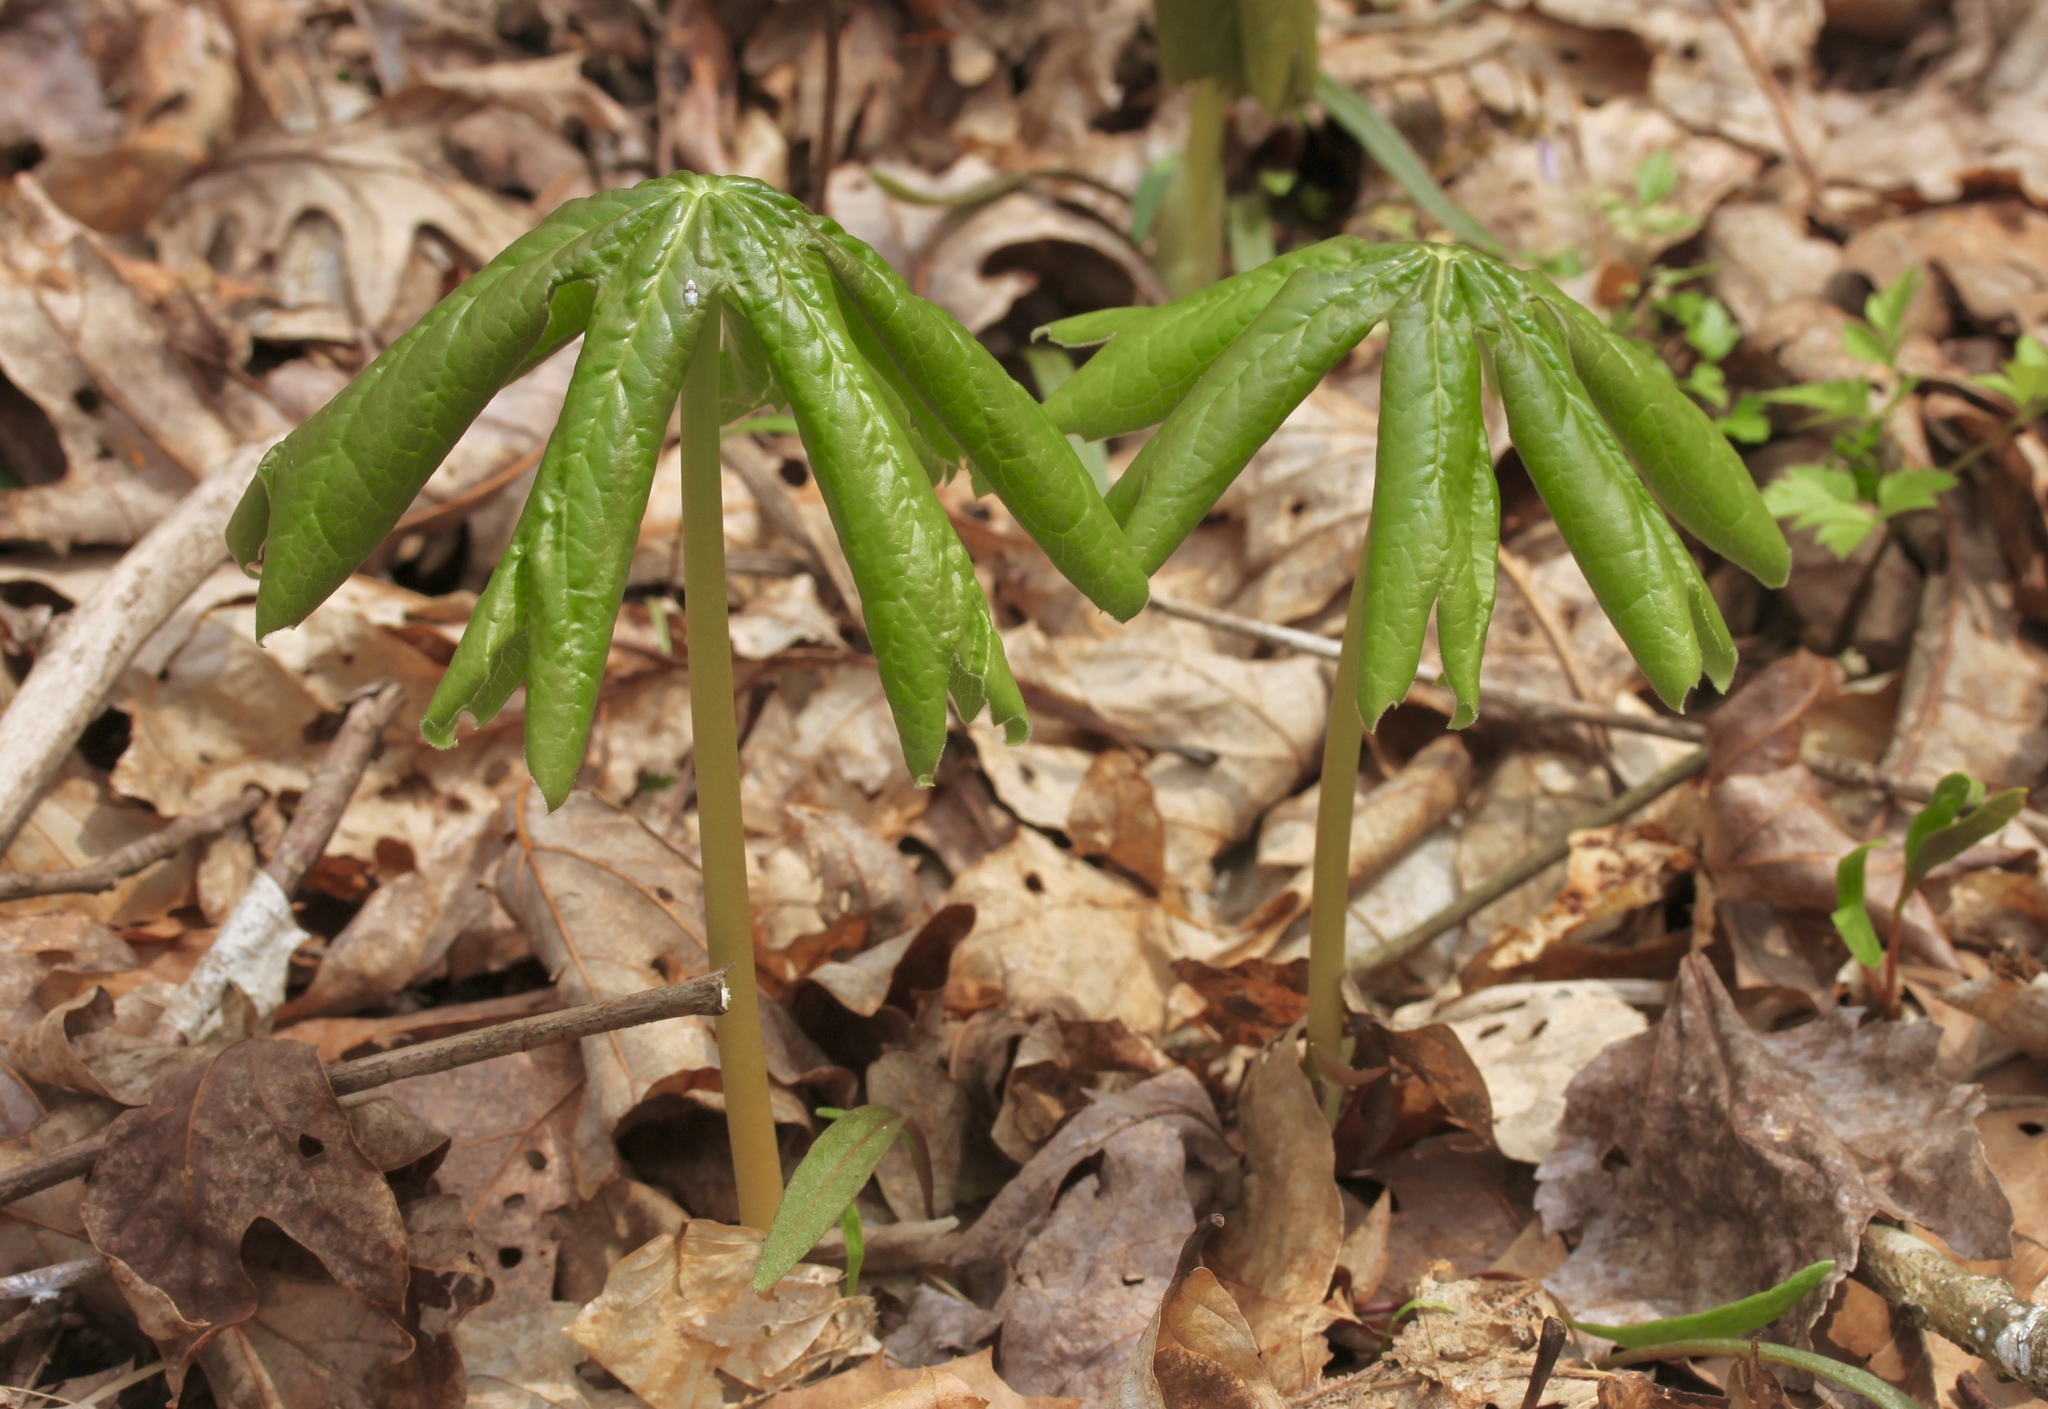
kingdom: Plantae
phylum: Tracheophyta
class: Magnoliopsida
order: Ranunculales
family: Berberidaceae
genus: Podophyllum
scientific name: Podophyllum peltatum
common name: Wild mandrake
